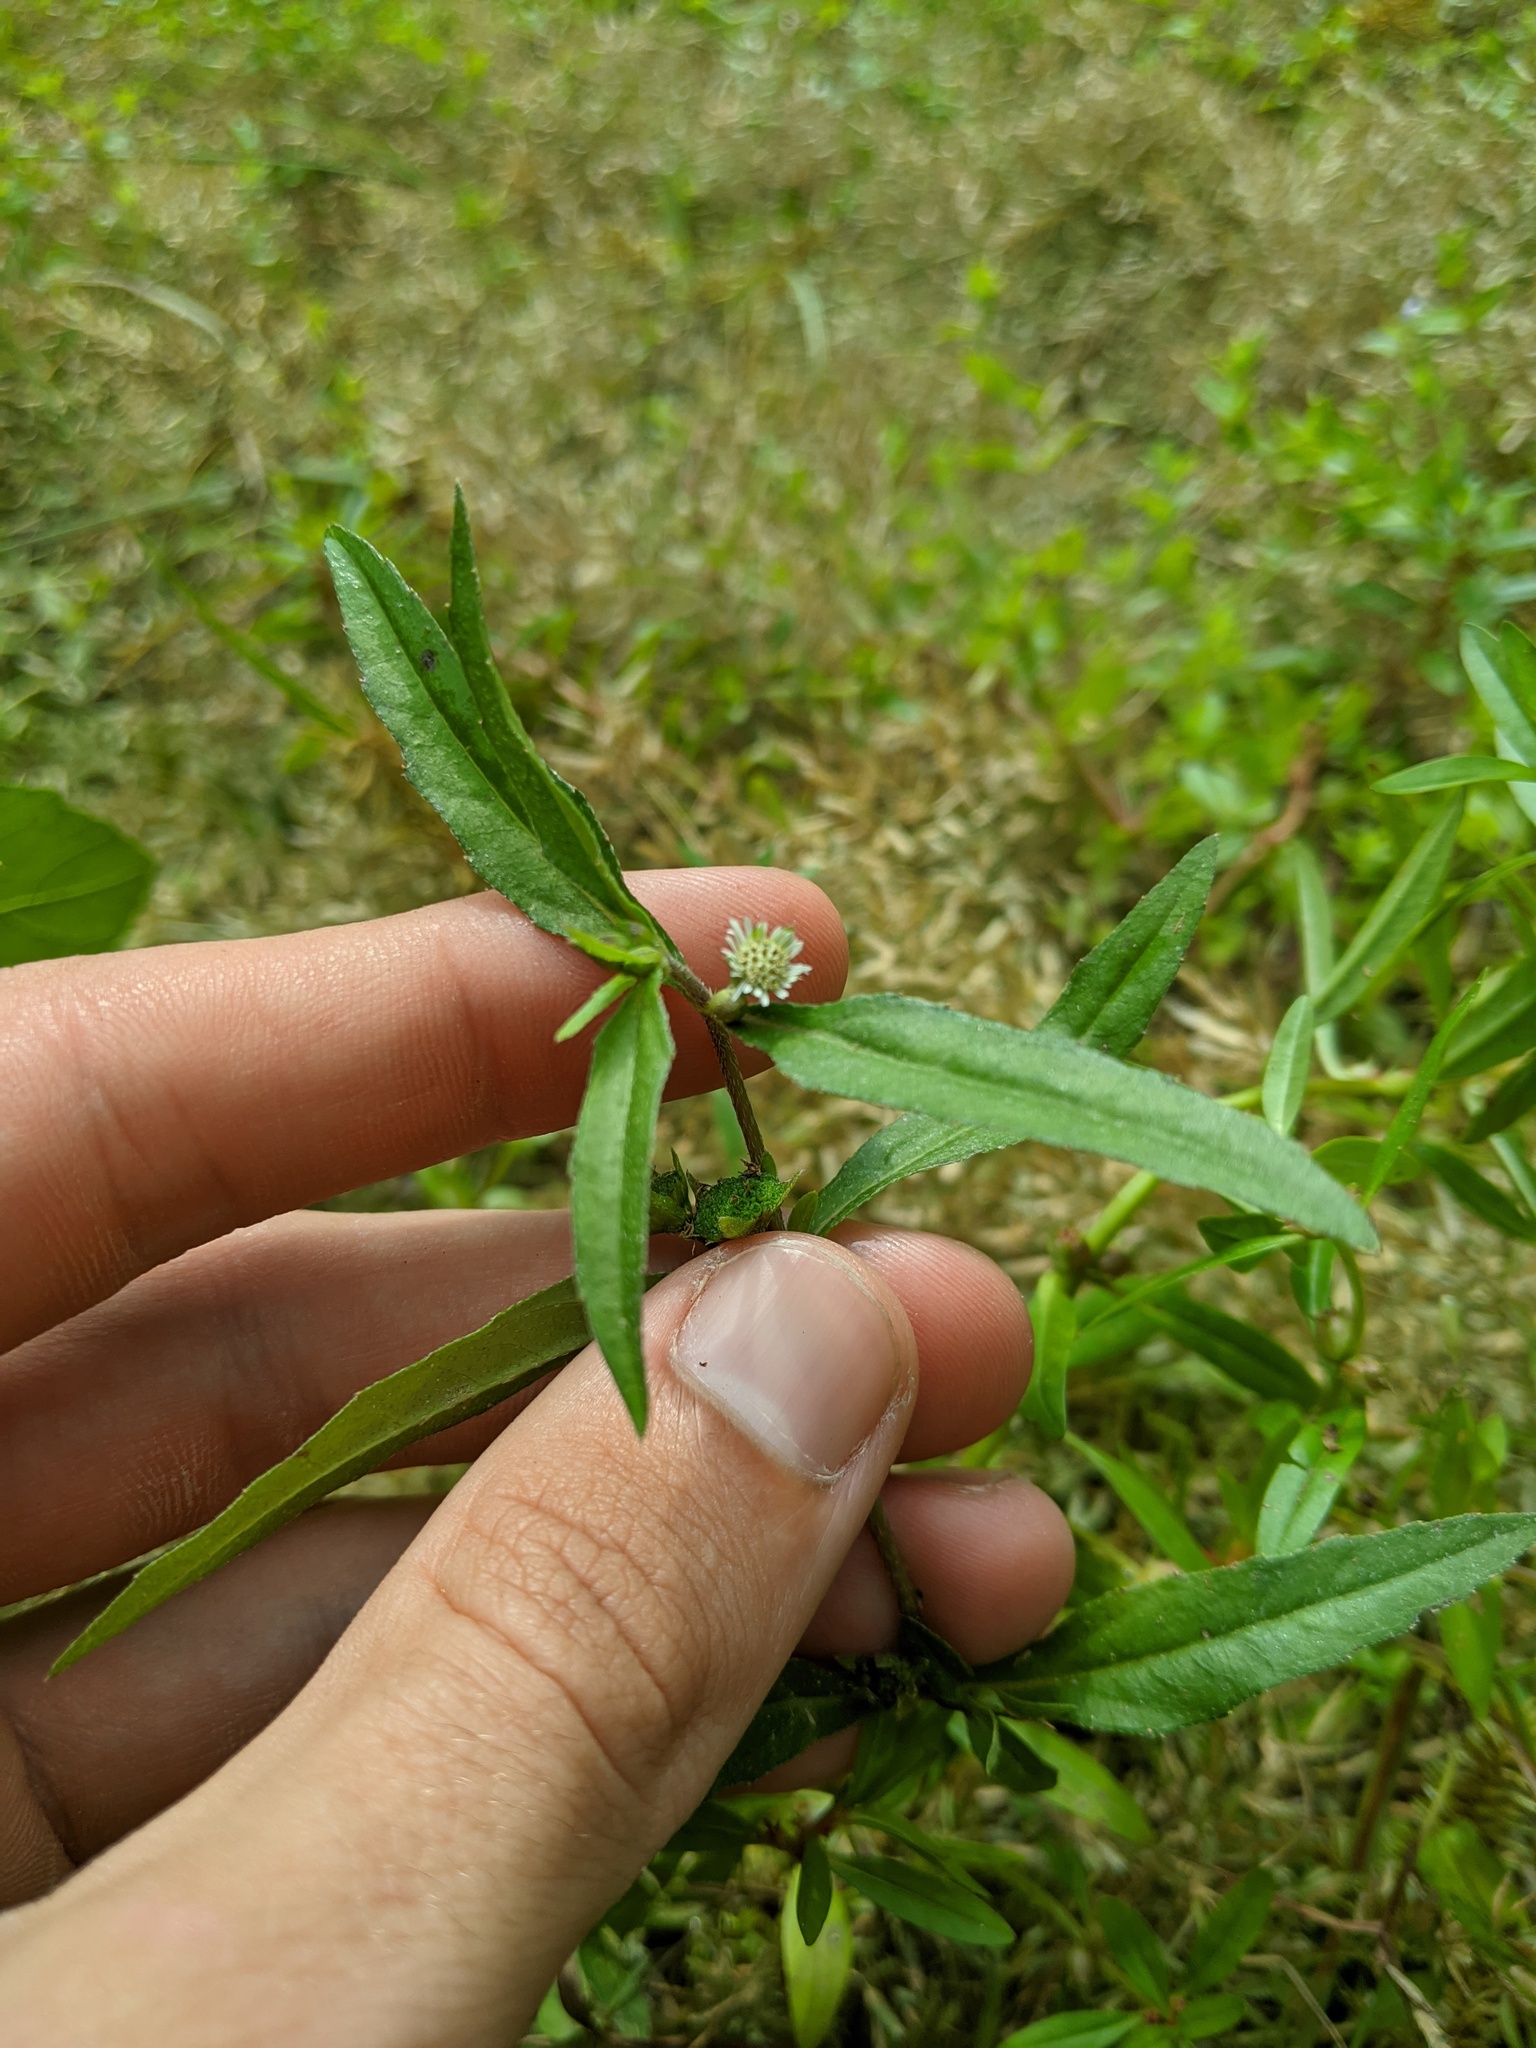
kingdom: Plantae
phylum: Tracheophyta
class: Magnoliopsida
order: Asterales
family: Asteraceae
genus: Eclipta
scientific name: Eclipta prostrata
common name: False daisy
